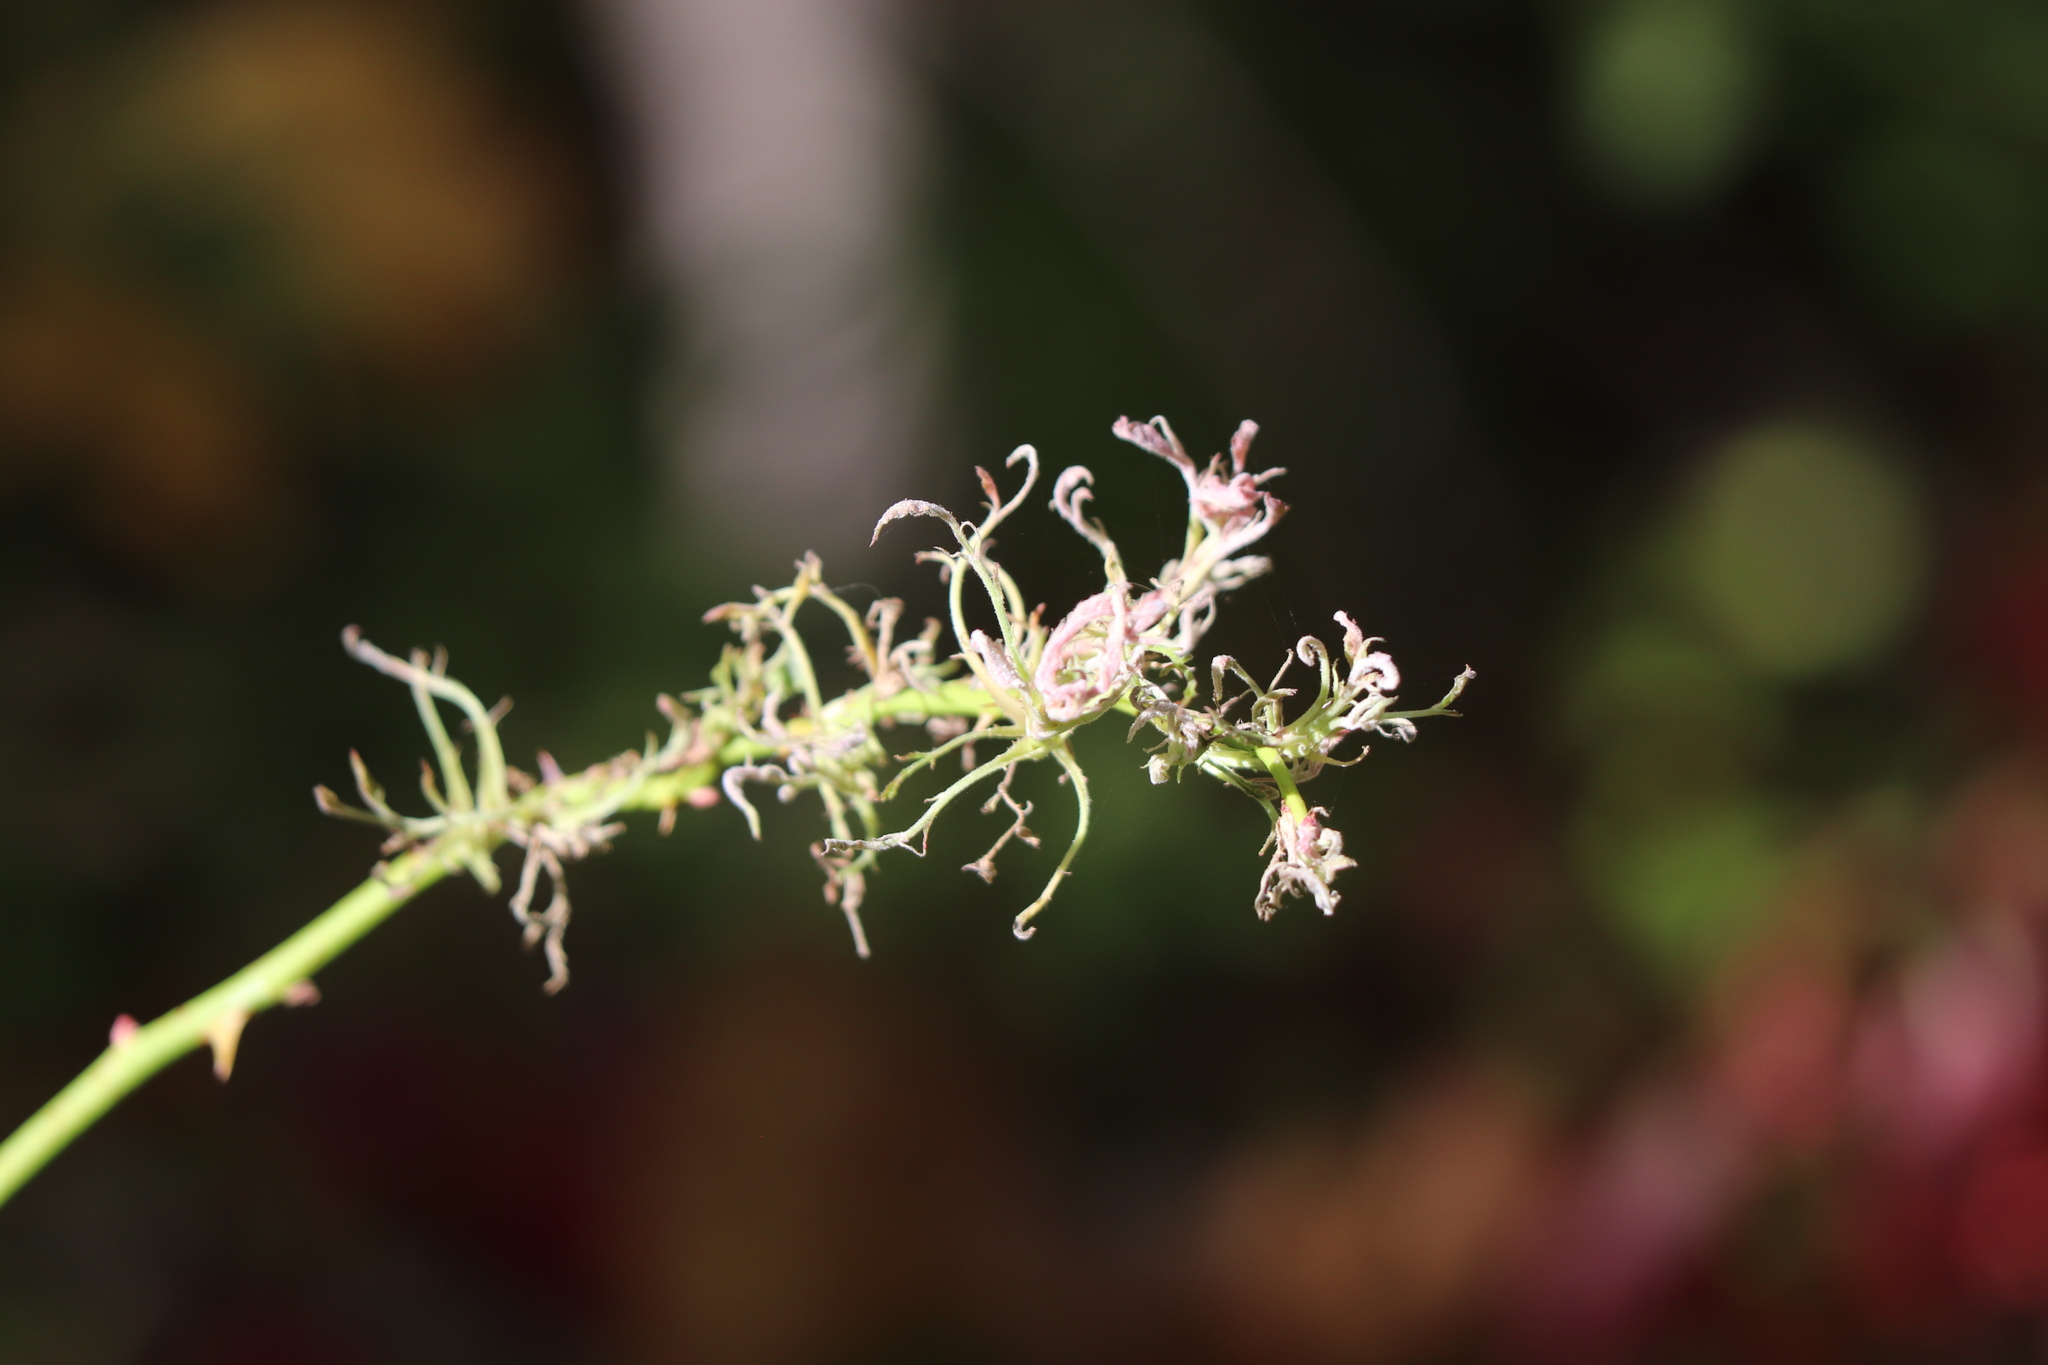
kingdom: Viruses
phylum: Negarnaviricota
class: Ellioviricetes
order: Bunyavirales
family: Fimoviridae
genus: Emaravirus
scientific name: Emaravirus rosae
